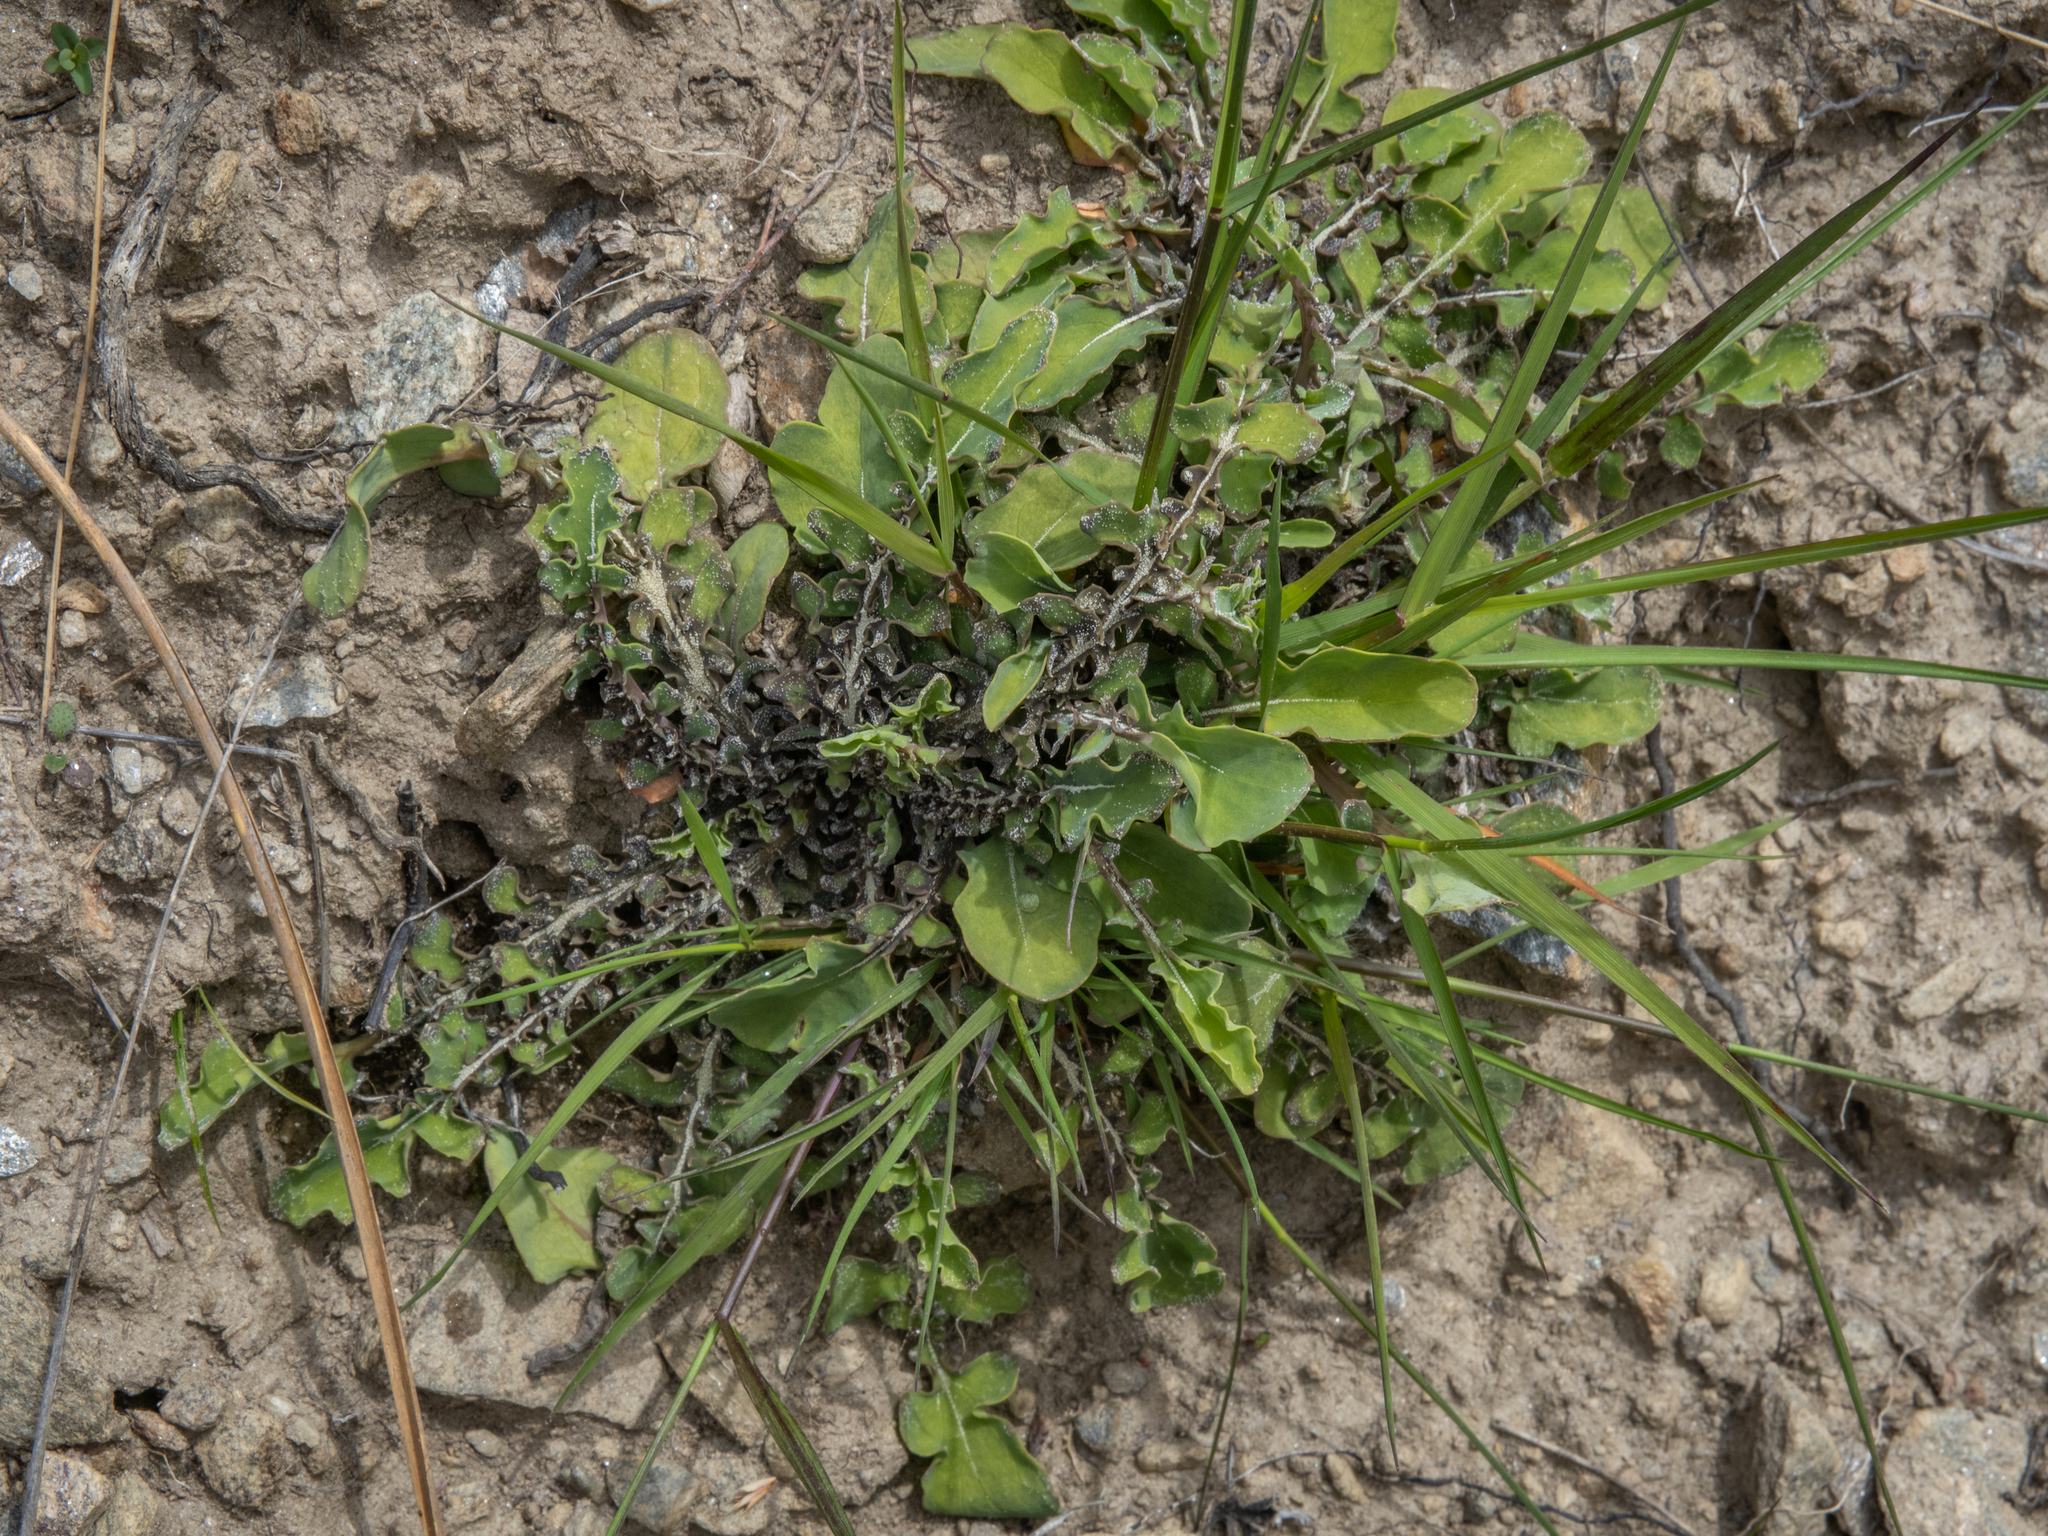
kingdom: Plantae
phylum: Tracheophyta
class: Magnoliopsida
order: Asterales
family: Asteraceae
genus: Sonchus
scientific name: Sonchus novae-zelandiae
